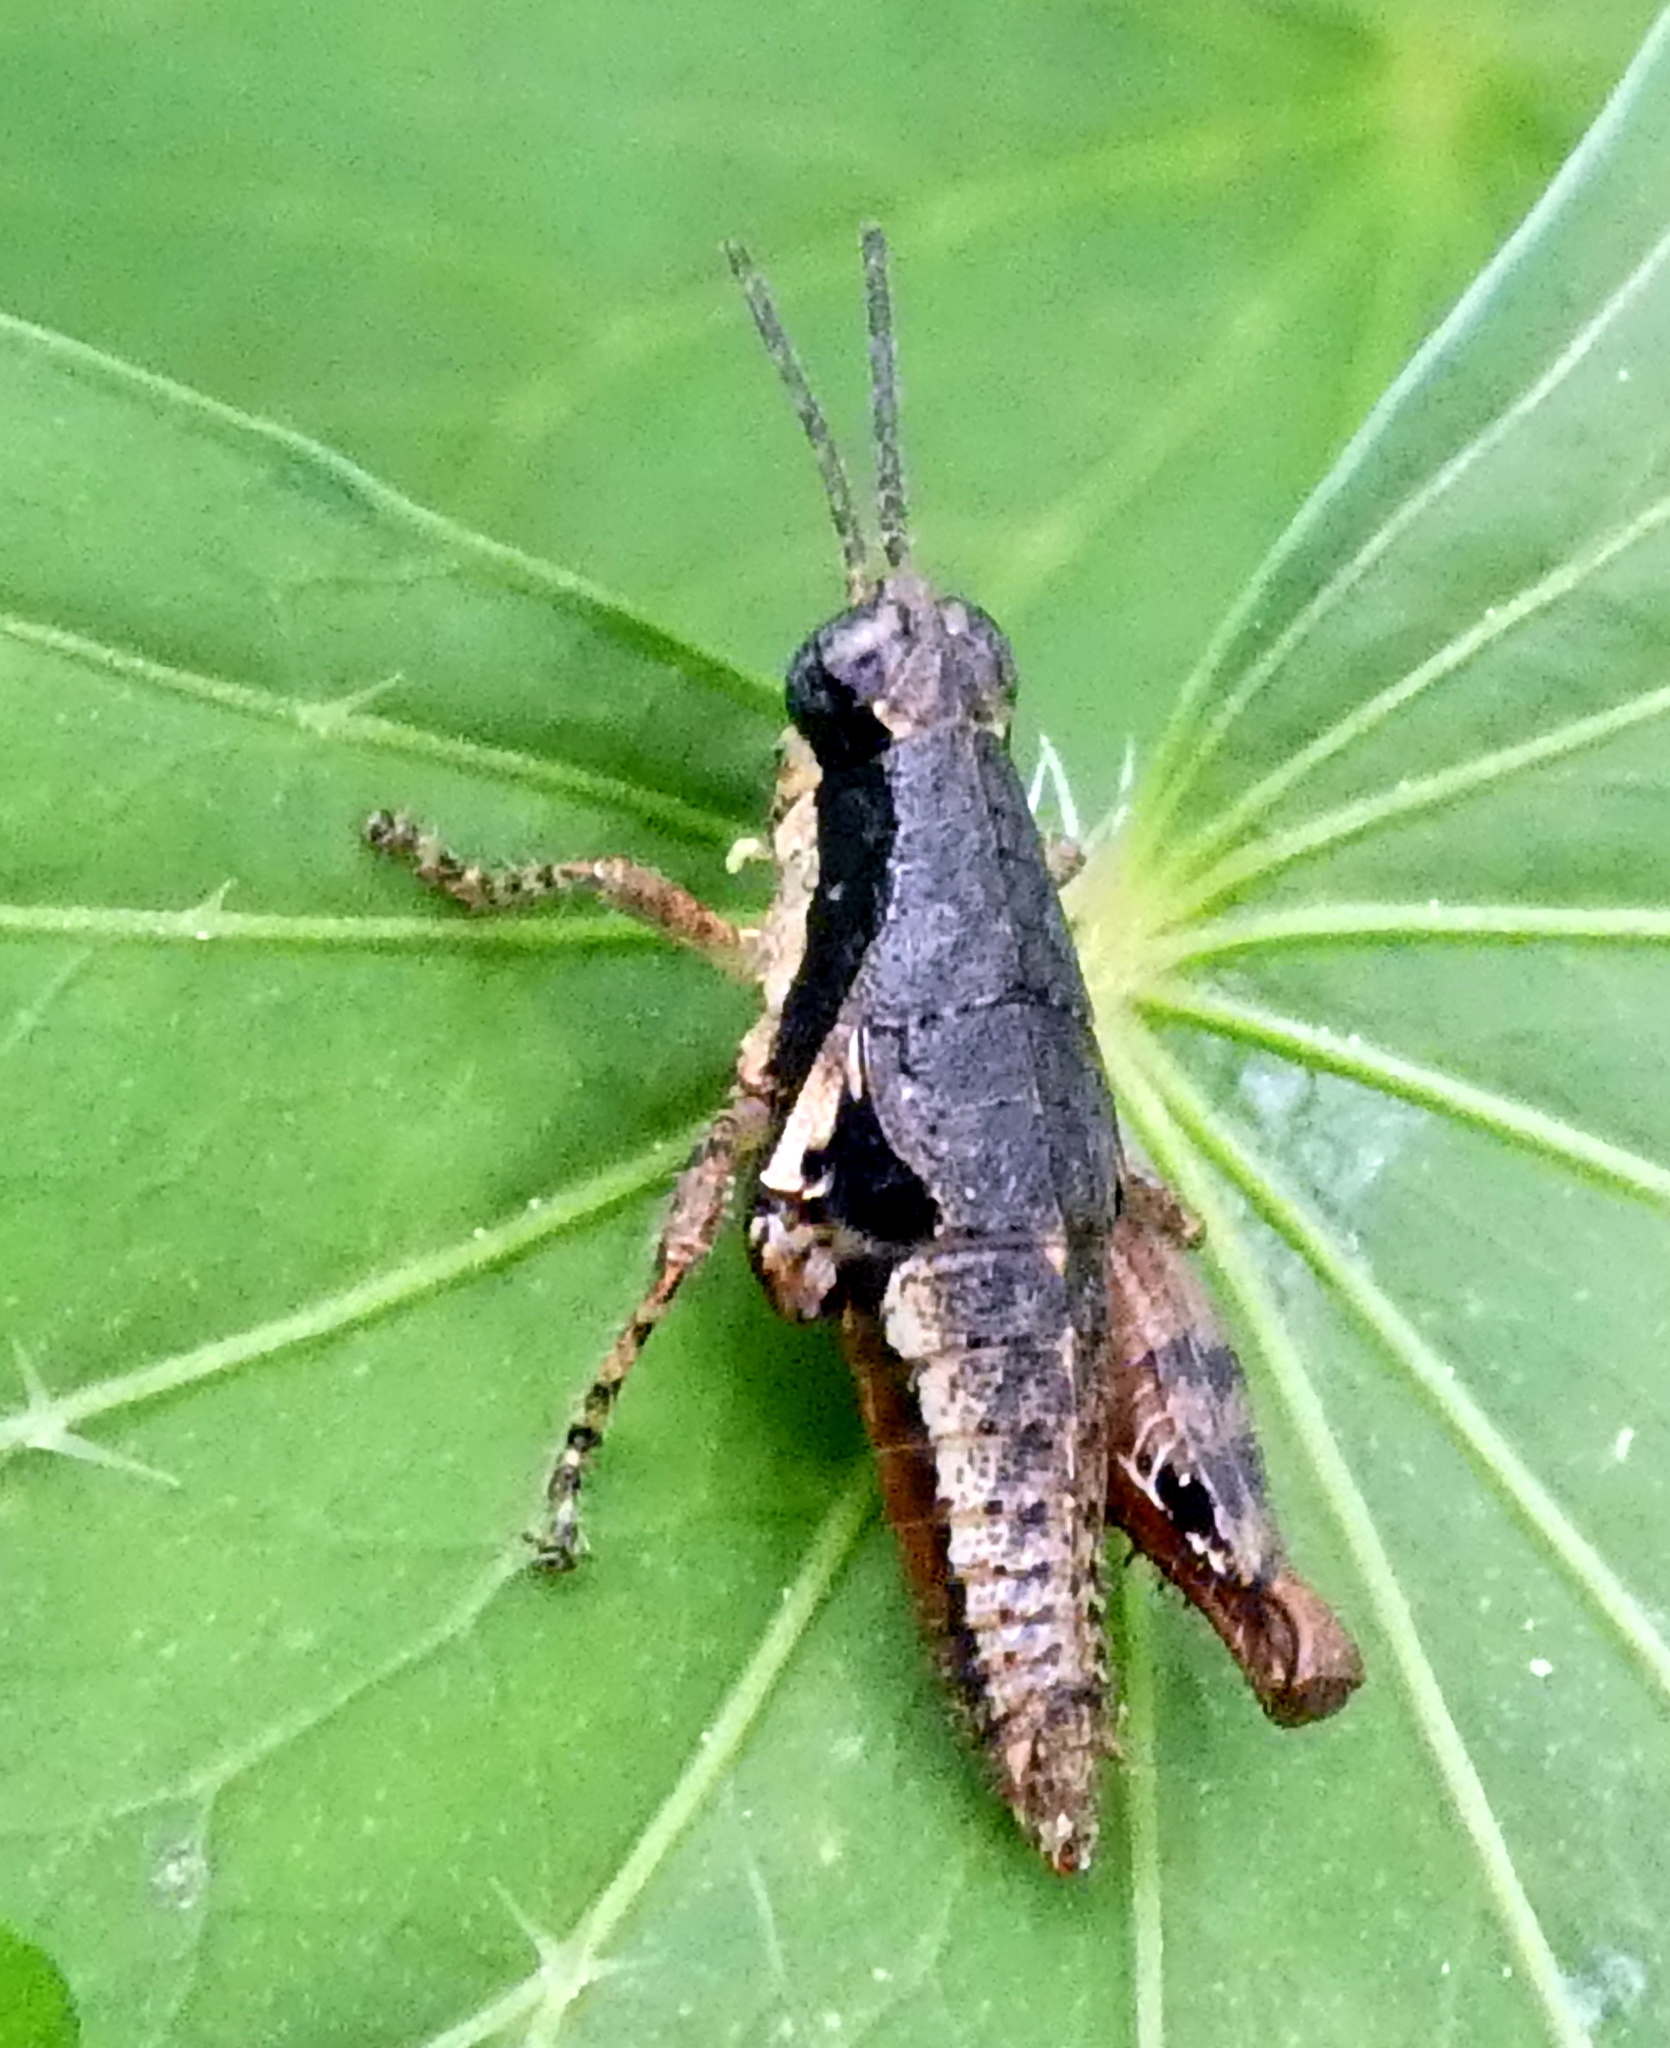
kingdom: Animalia
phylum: Arthropoda
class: Insecta
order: Orthoptera
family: Acrididae
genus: Eujivarus
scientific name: Eujivarus meridionalis
